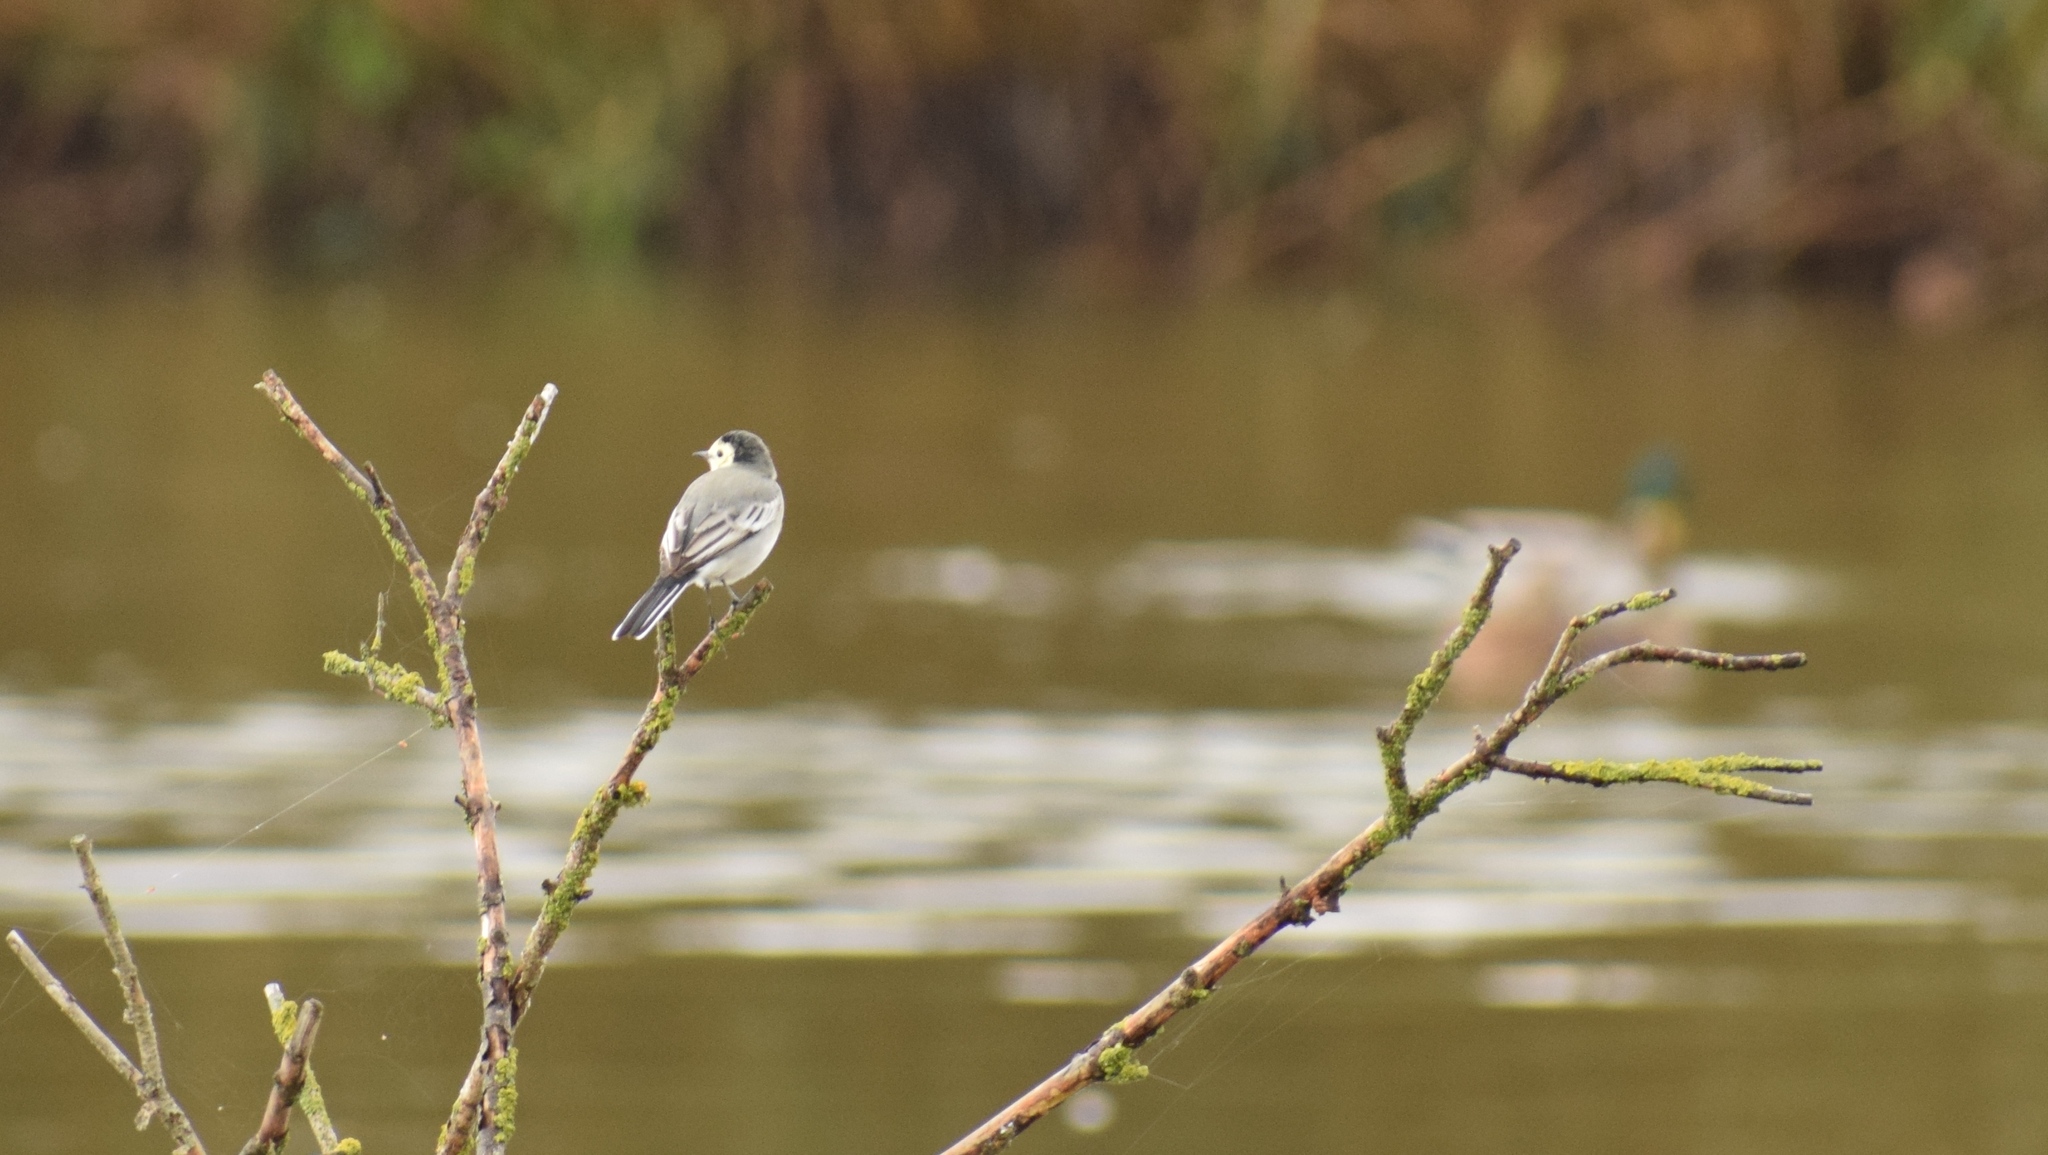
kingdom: Animalia
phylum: Chordata
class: Aves
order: Passeriformes
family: Motacillidae
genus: Motacilla
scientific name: Motacilla alba
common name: White wagtail
